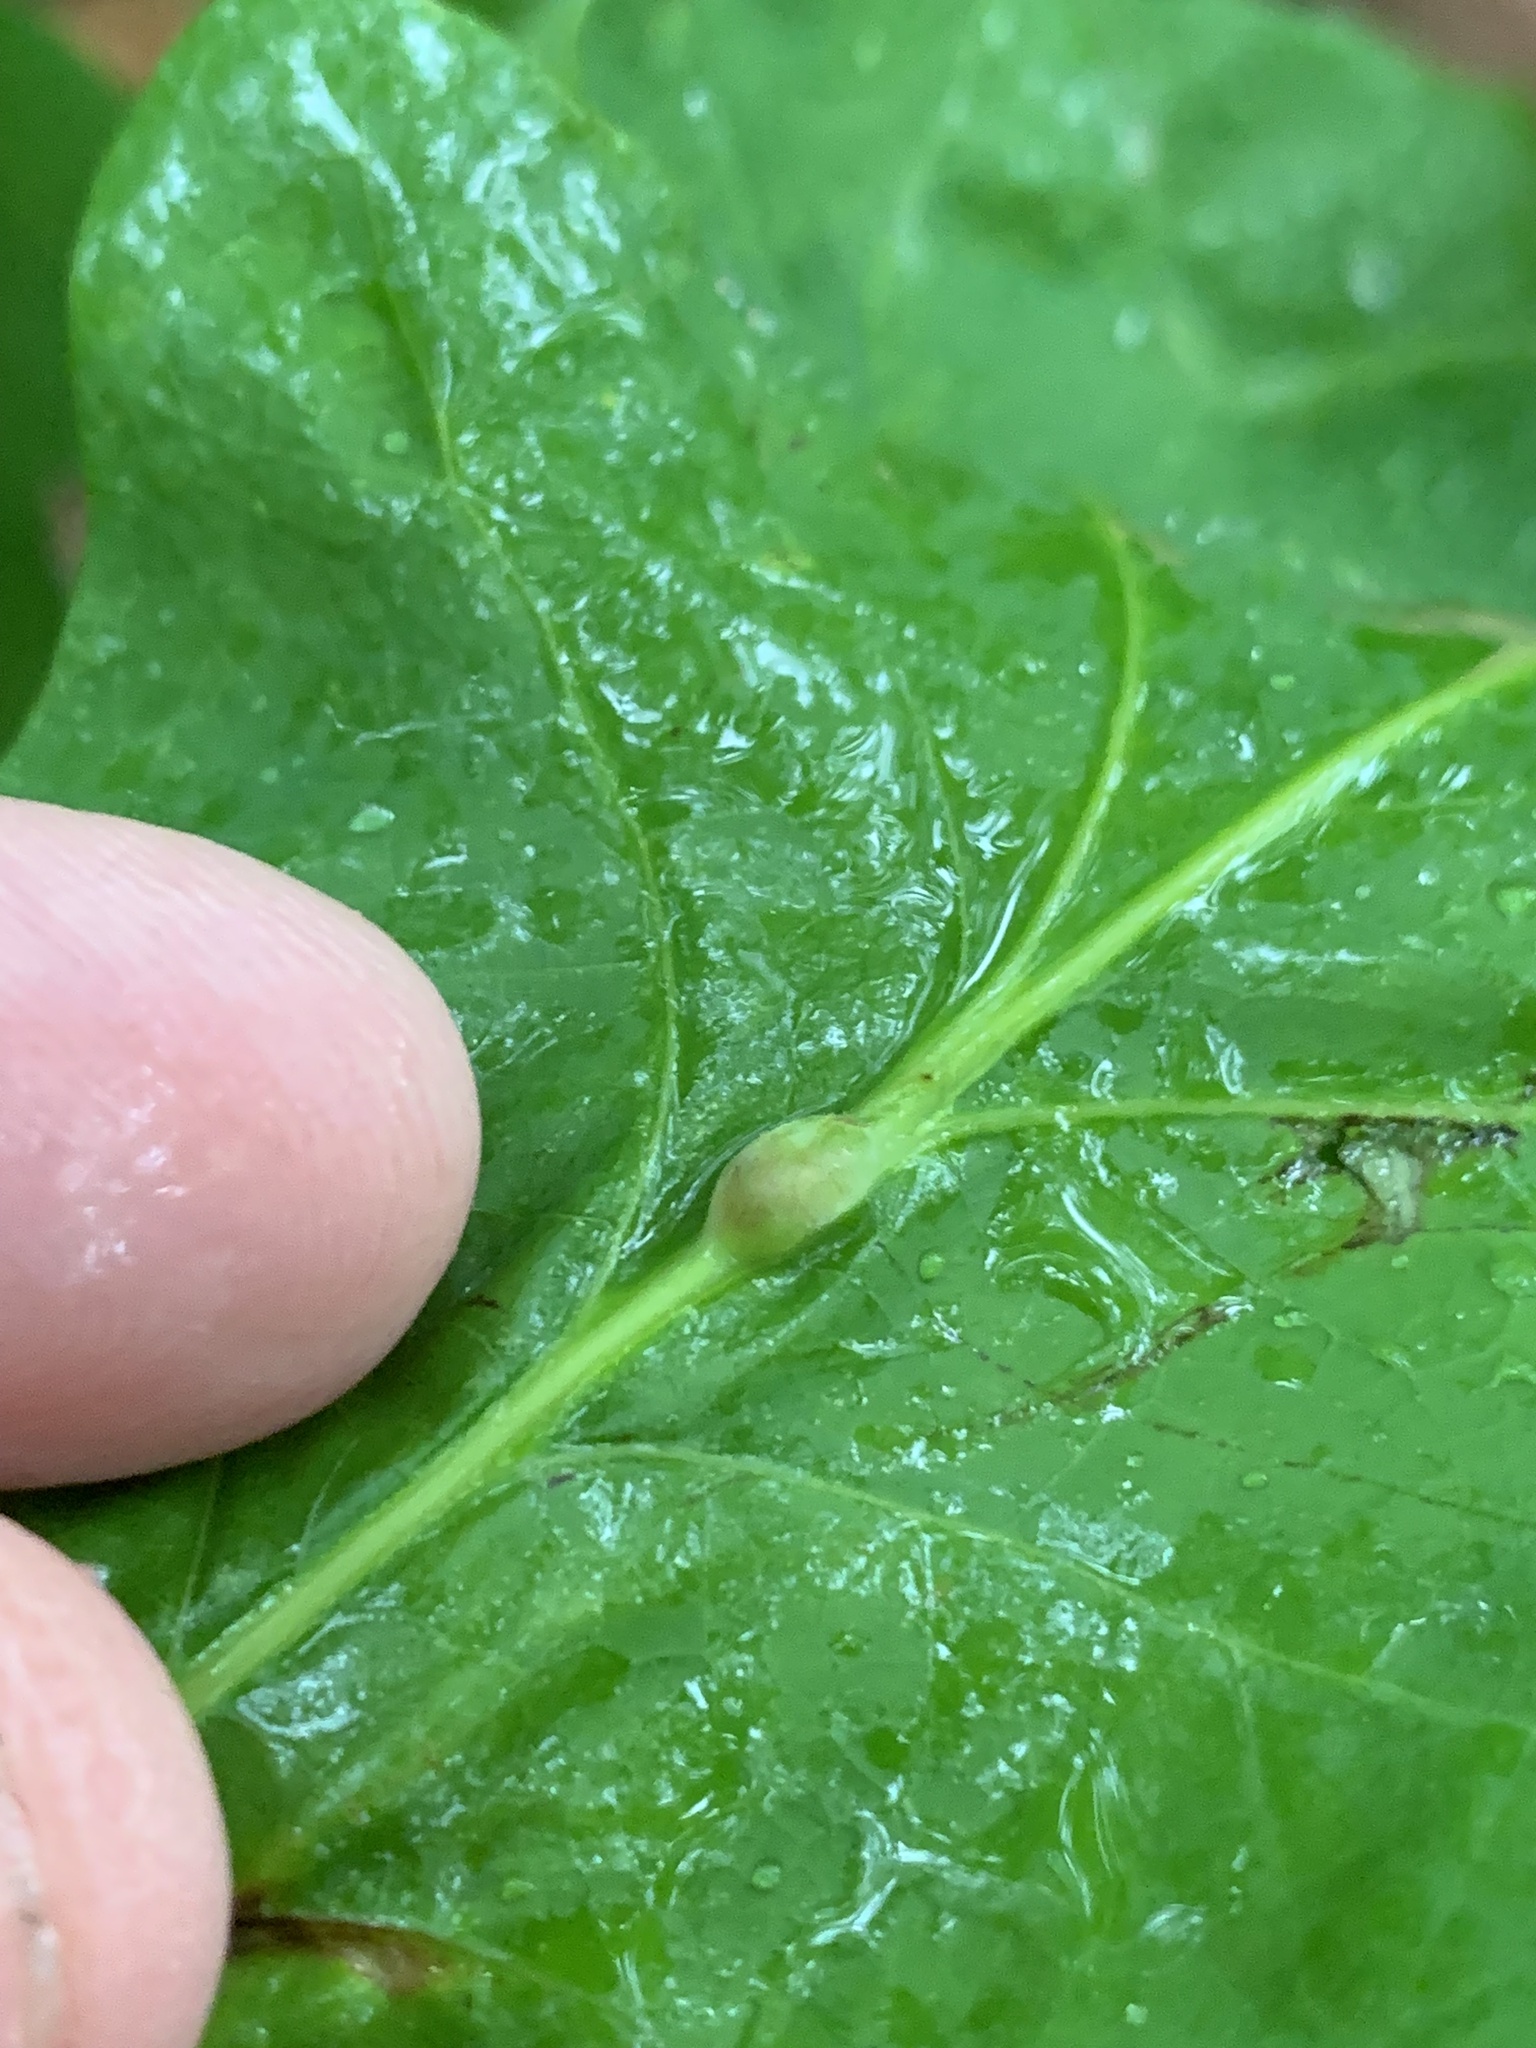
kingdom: Animalia
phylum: Arthropoda
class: Insecta
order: Hymenoptera
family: Cynipidae
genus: Andricus
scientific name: Andricus
